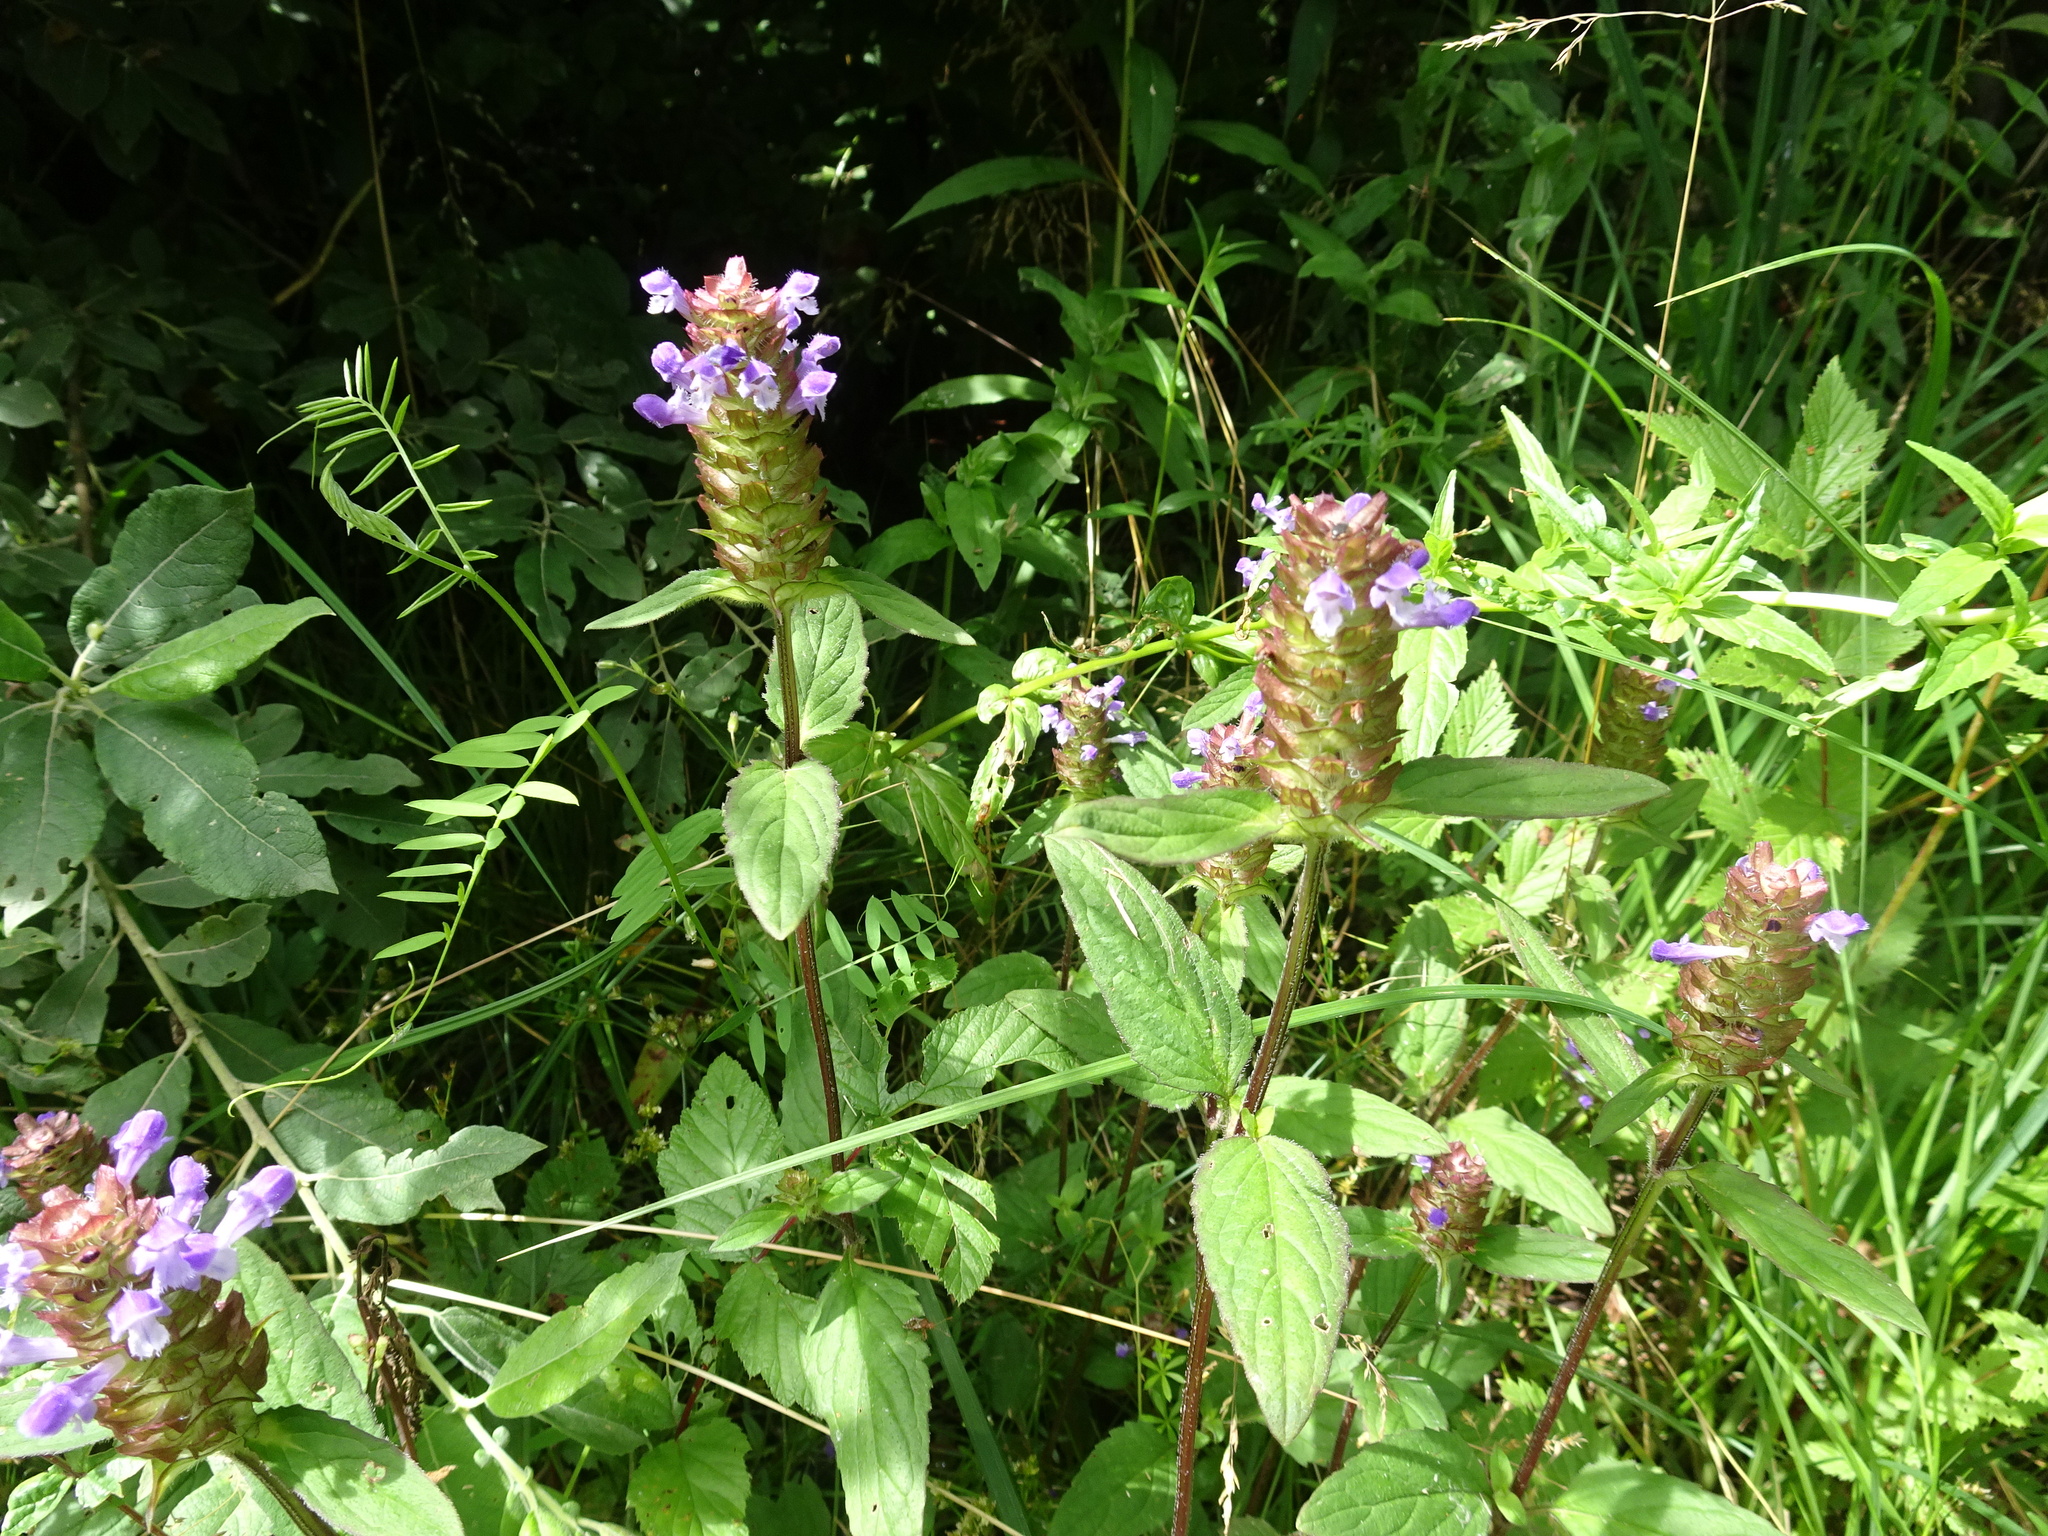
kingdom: Plantae
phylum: Tracheophyta
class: Magnoliopsida
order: Lamiales
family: Lamiaceae
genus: Prunella
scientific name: Prunella vulgaris
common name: Heal-all
